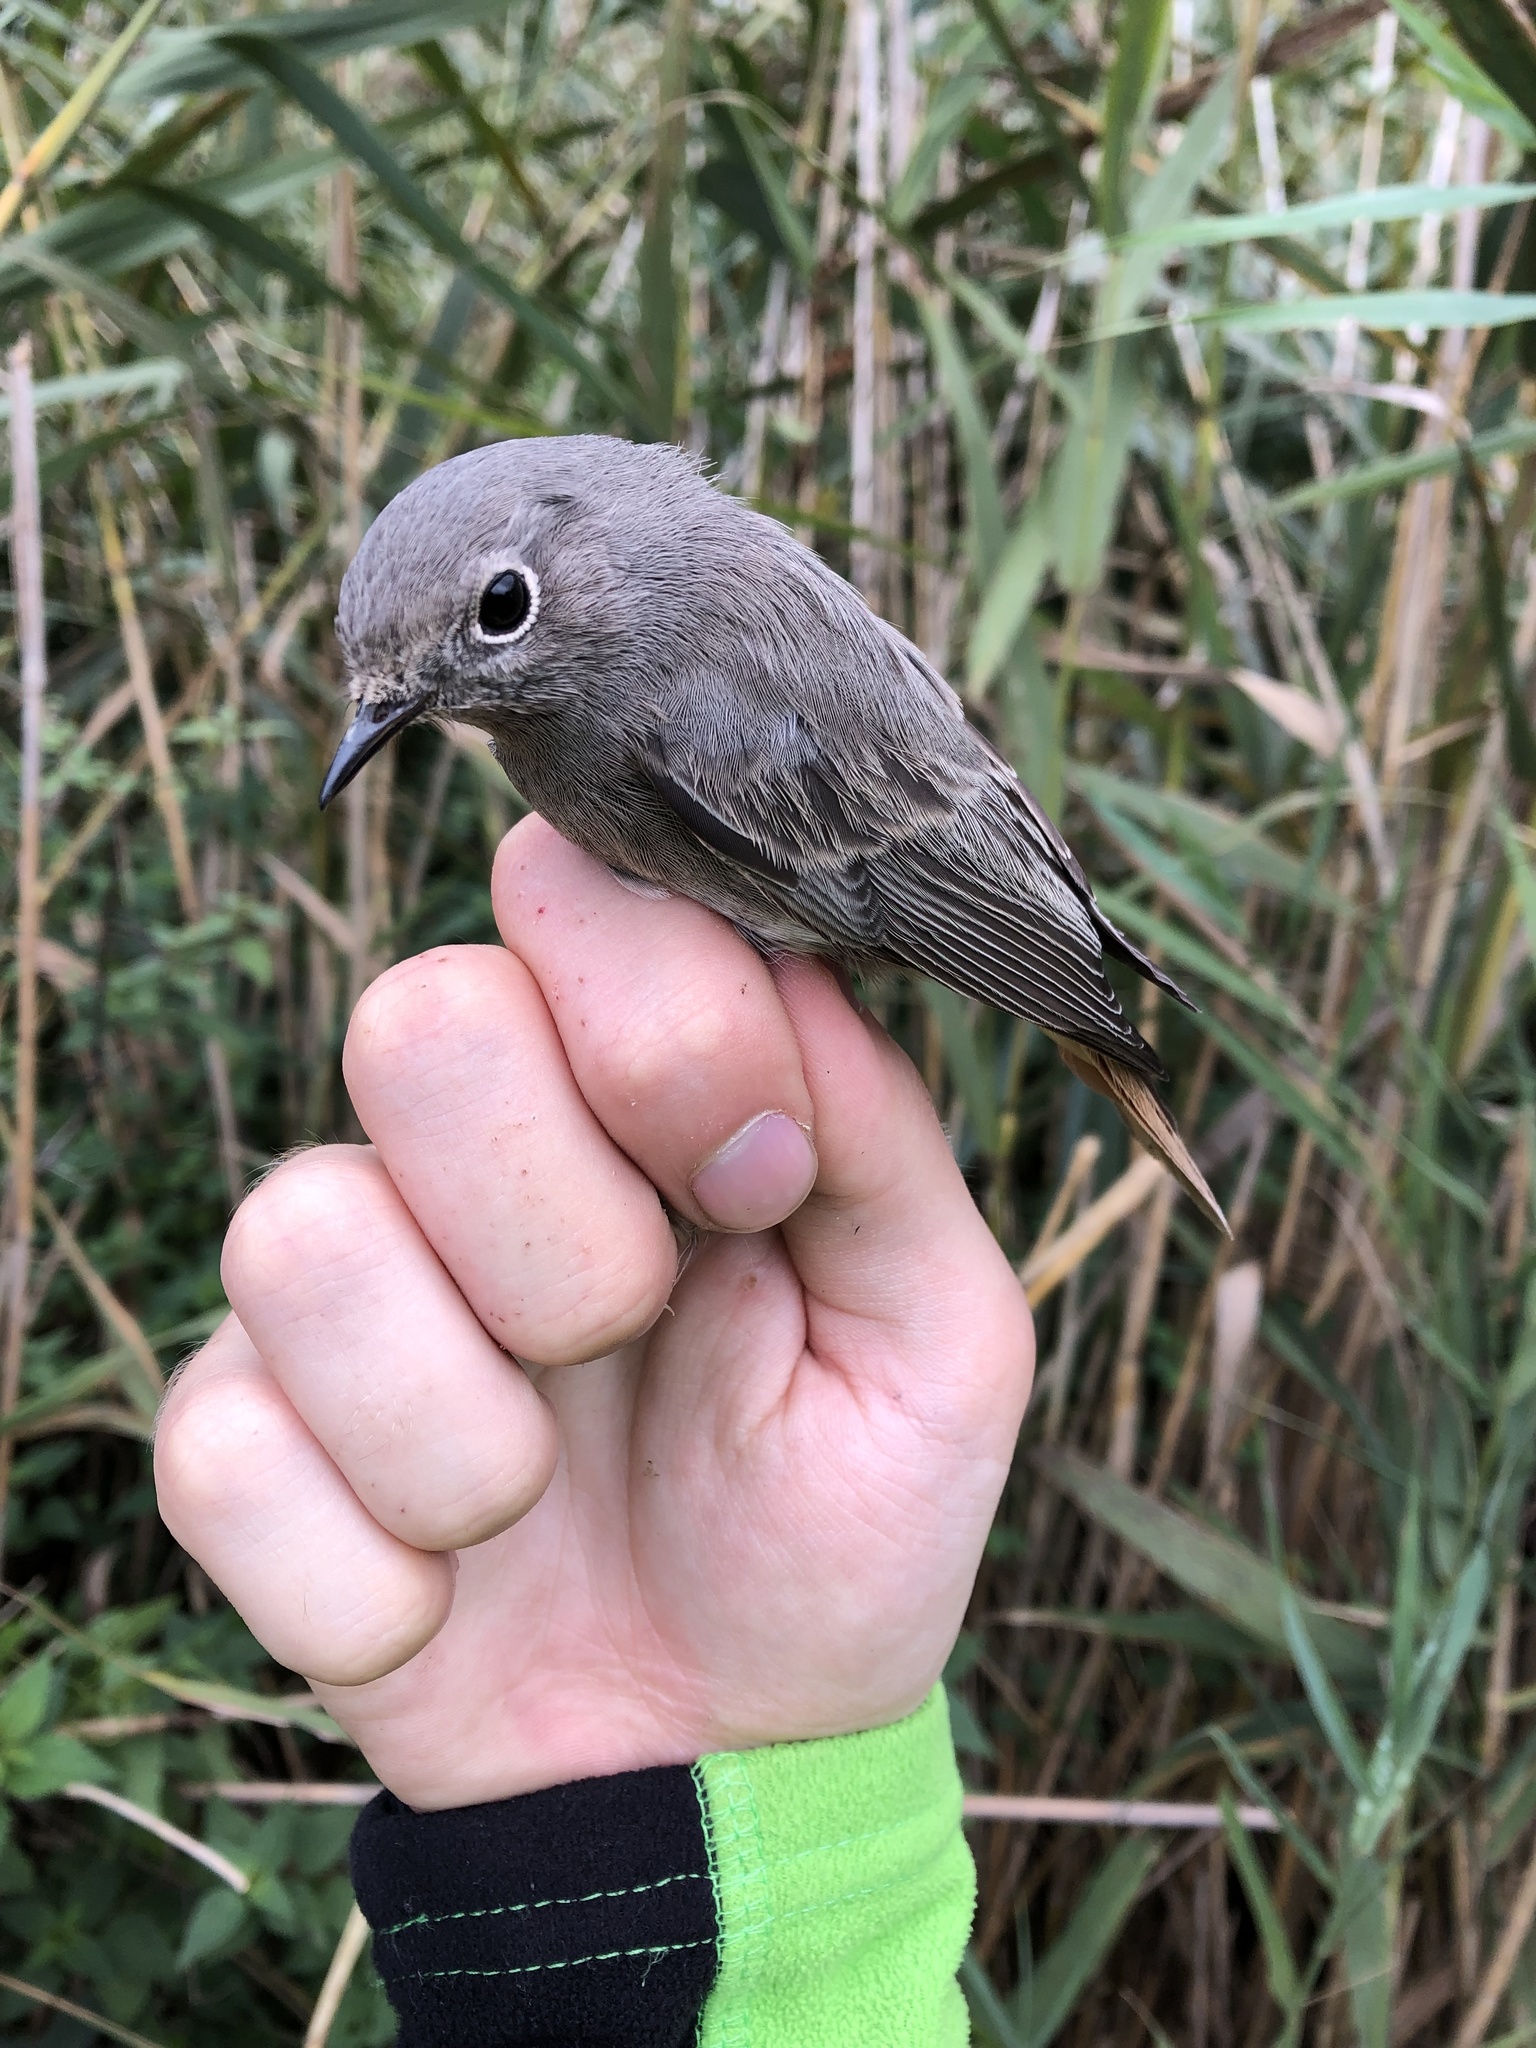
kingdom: Animalia
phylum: Chordata
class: Aves
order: Passeriformes
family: Muscicapidae
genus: Phoenicurus
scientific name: Phoenicurus ochruros
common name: Black redstart
